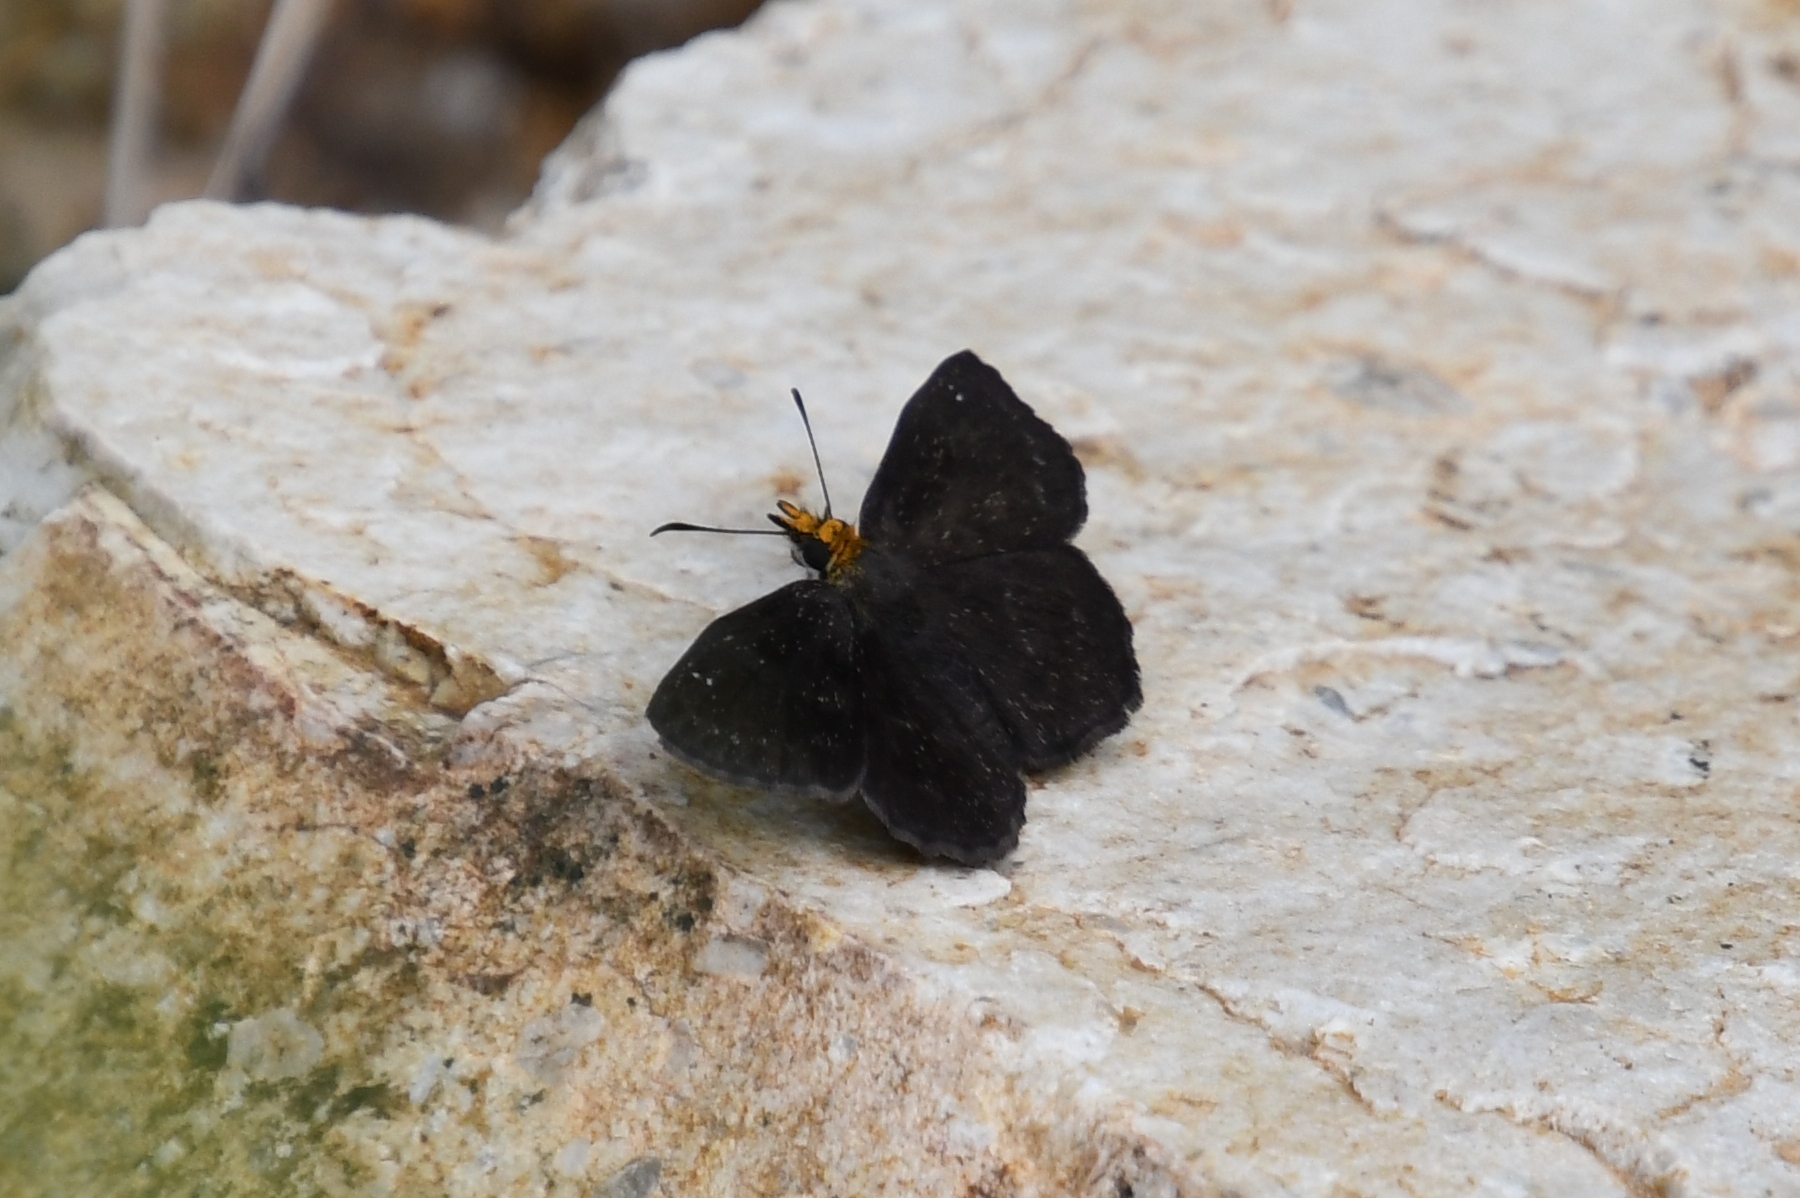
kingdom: Animalia
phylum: Arthropoda
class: Insecta
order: Lepidoptera
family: Hesperiidae
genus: Staphylus
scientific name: Staphylus ceos
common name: Golden-headed scallopwing
